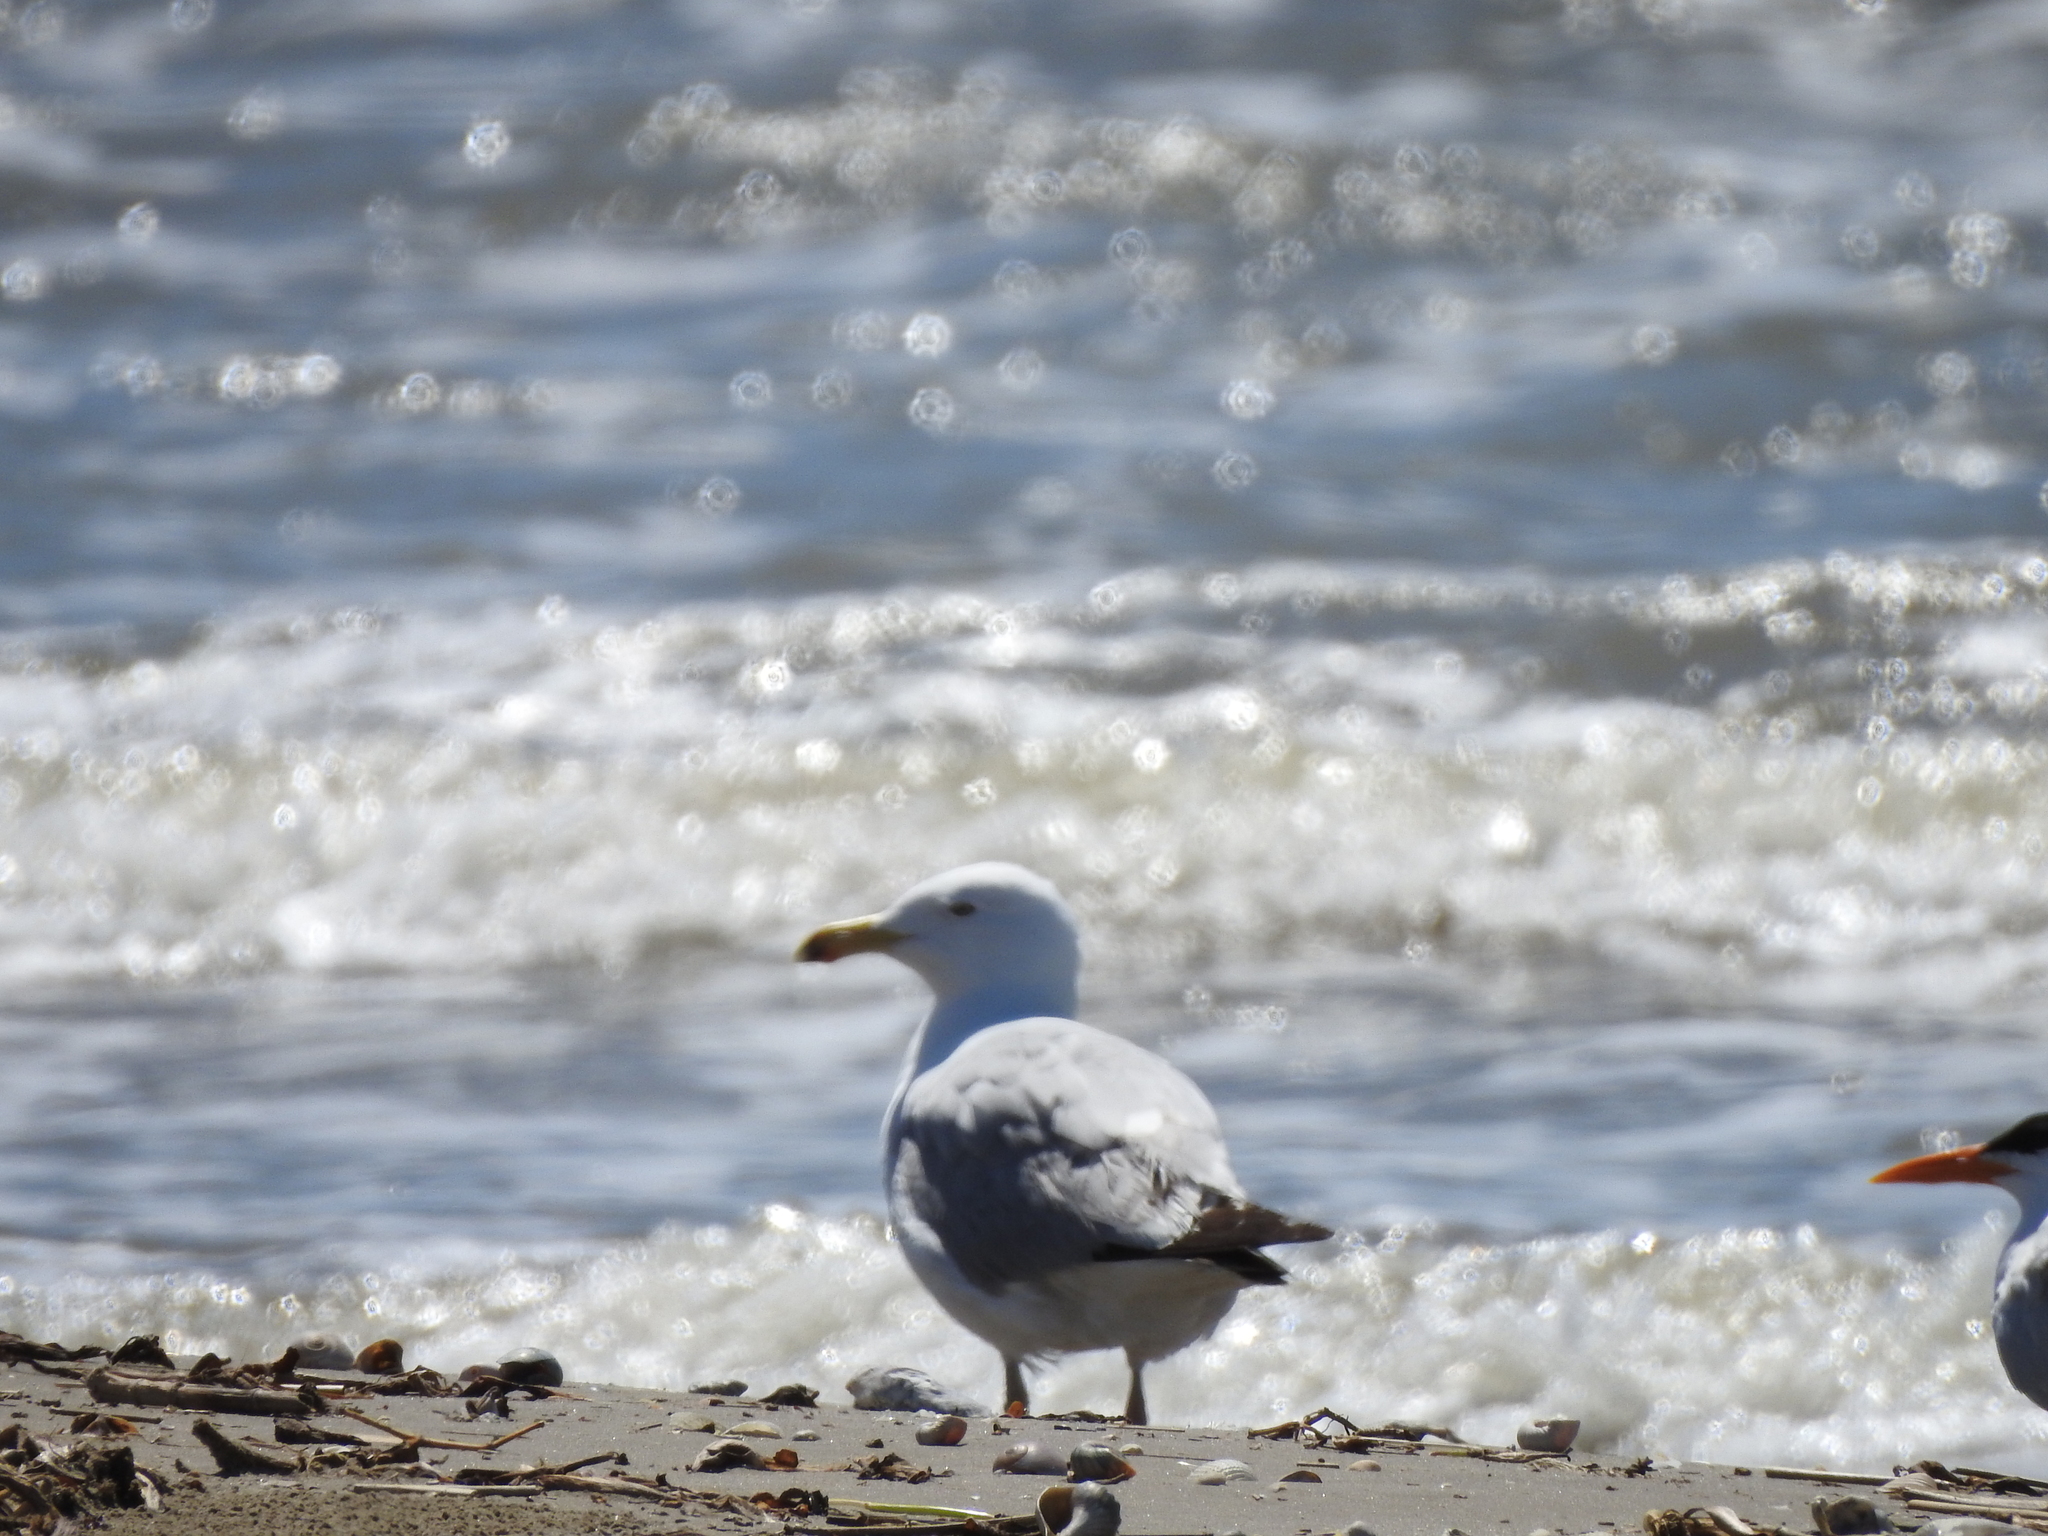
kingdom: Animalia
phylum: Chordata
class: Aves
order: Charadriiformes
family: Laridae
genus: Larus
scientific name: Larus argentatus
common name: Herring gull
